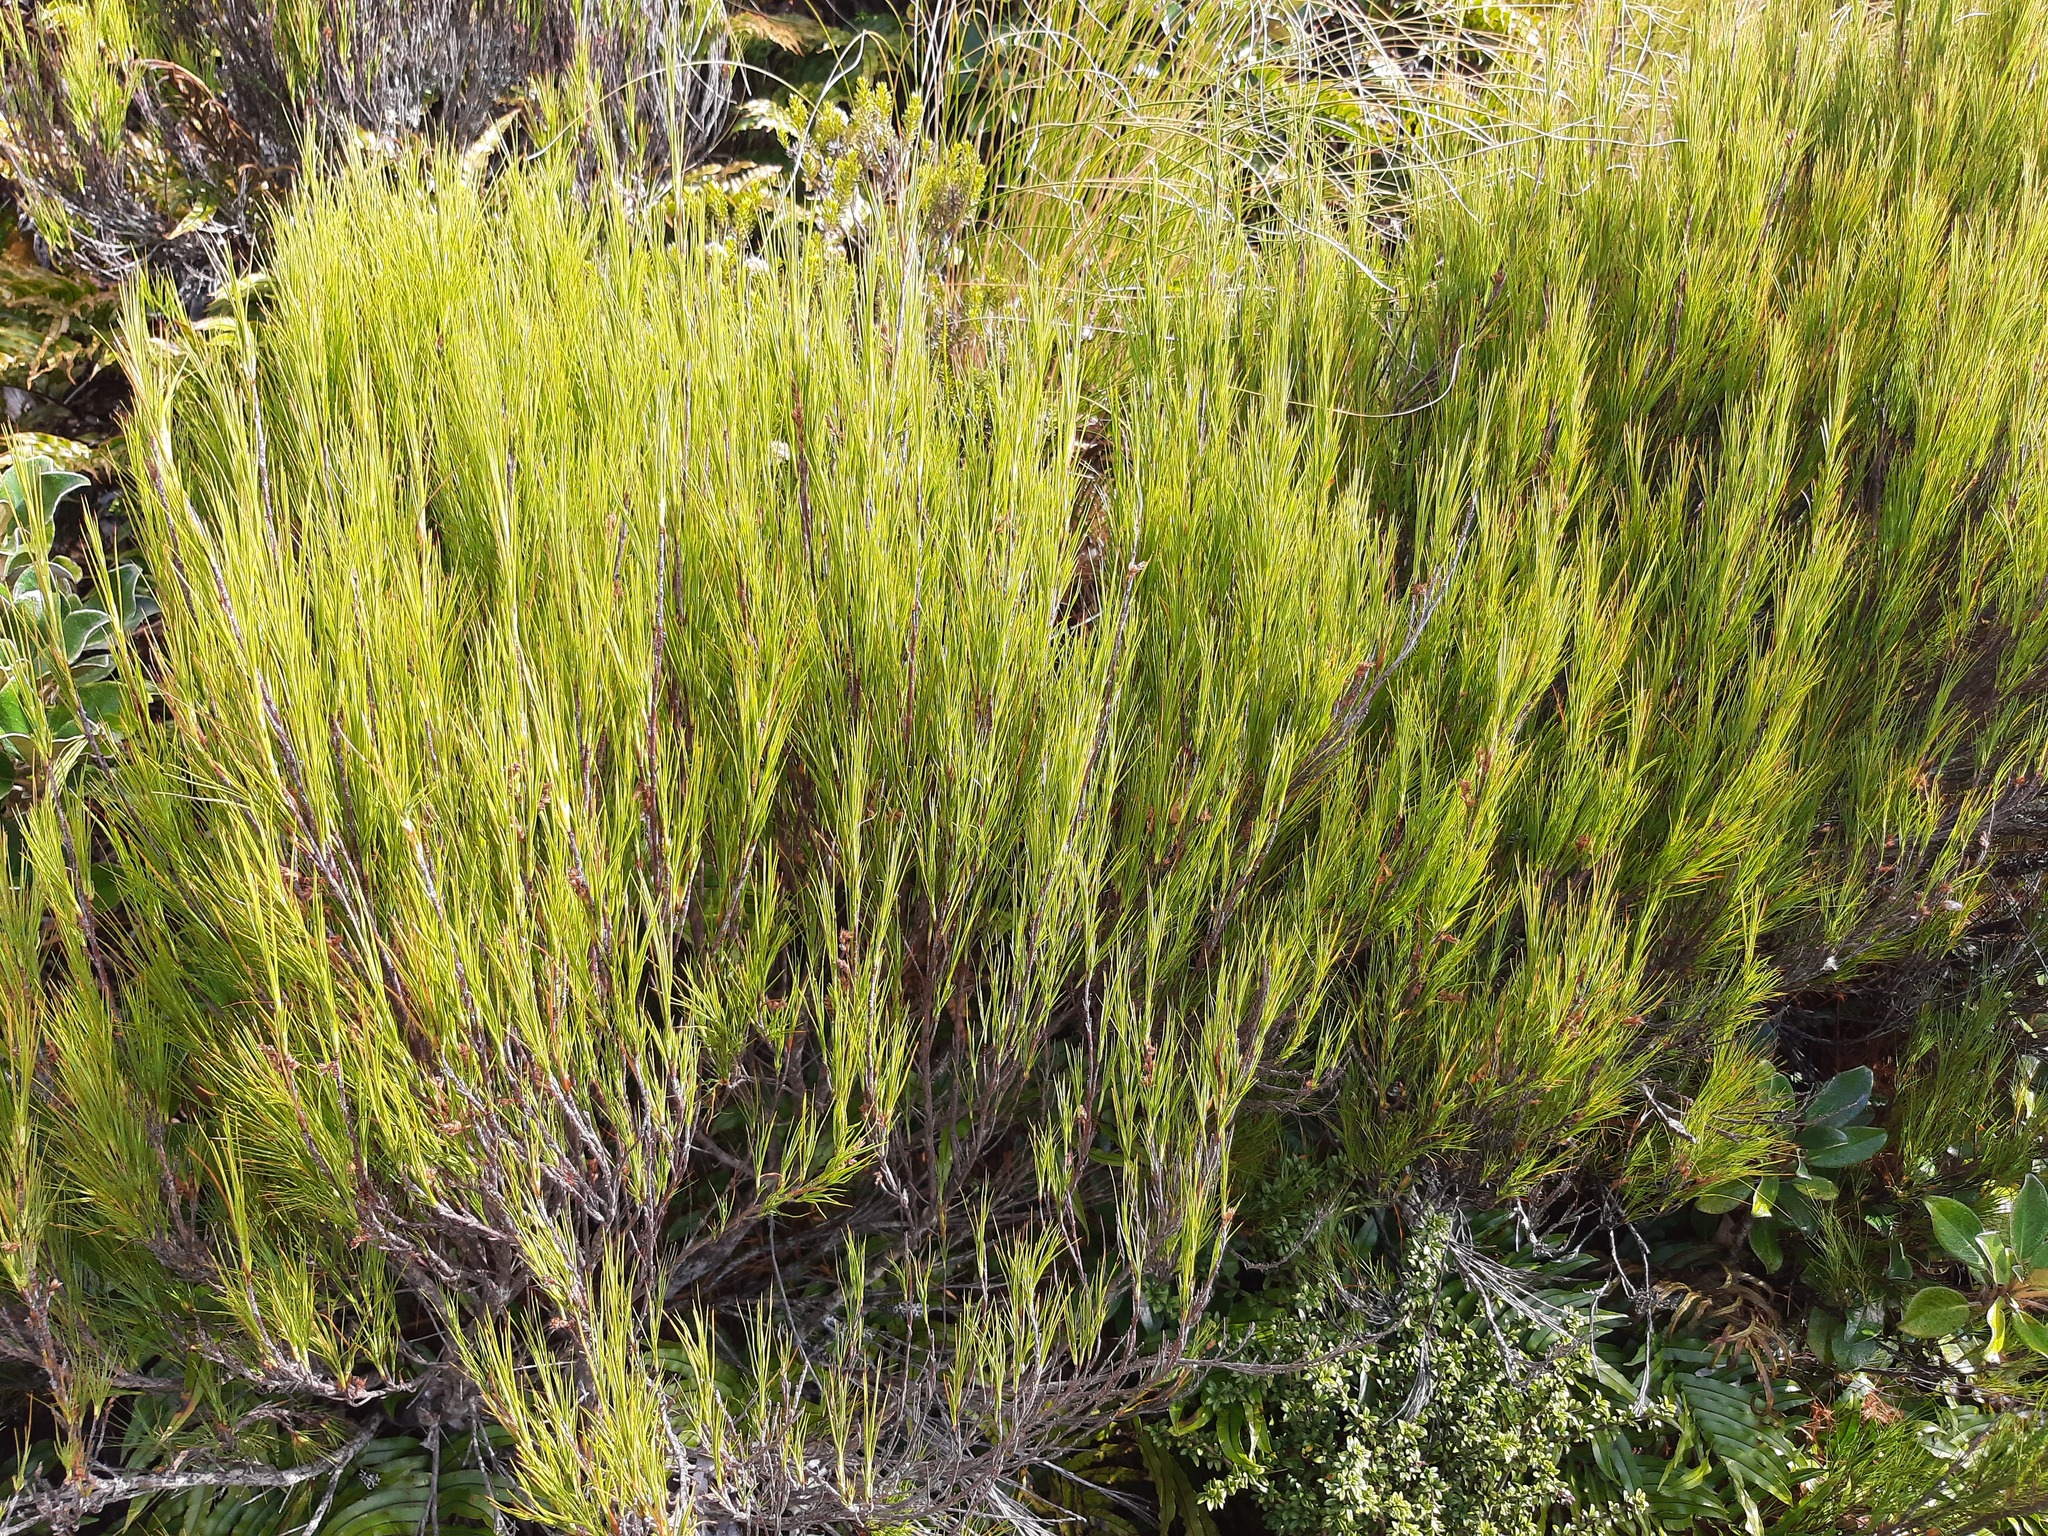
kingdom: Plantae
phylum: Tracheophyta
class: Magnoliopsida
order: Ericales
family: Ericaceae
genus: Dracophyllum
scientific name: Dracophyllum filifolium
